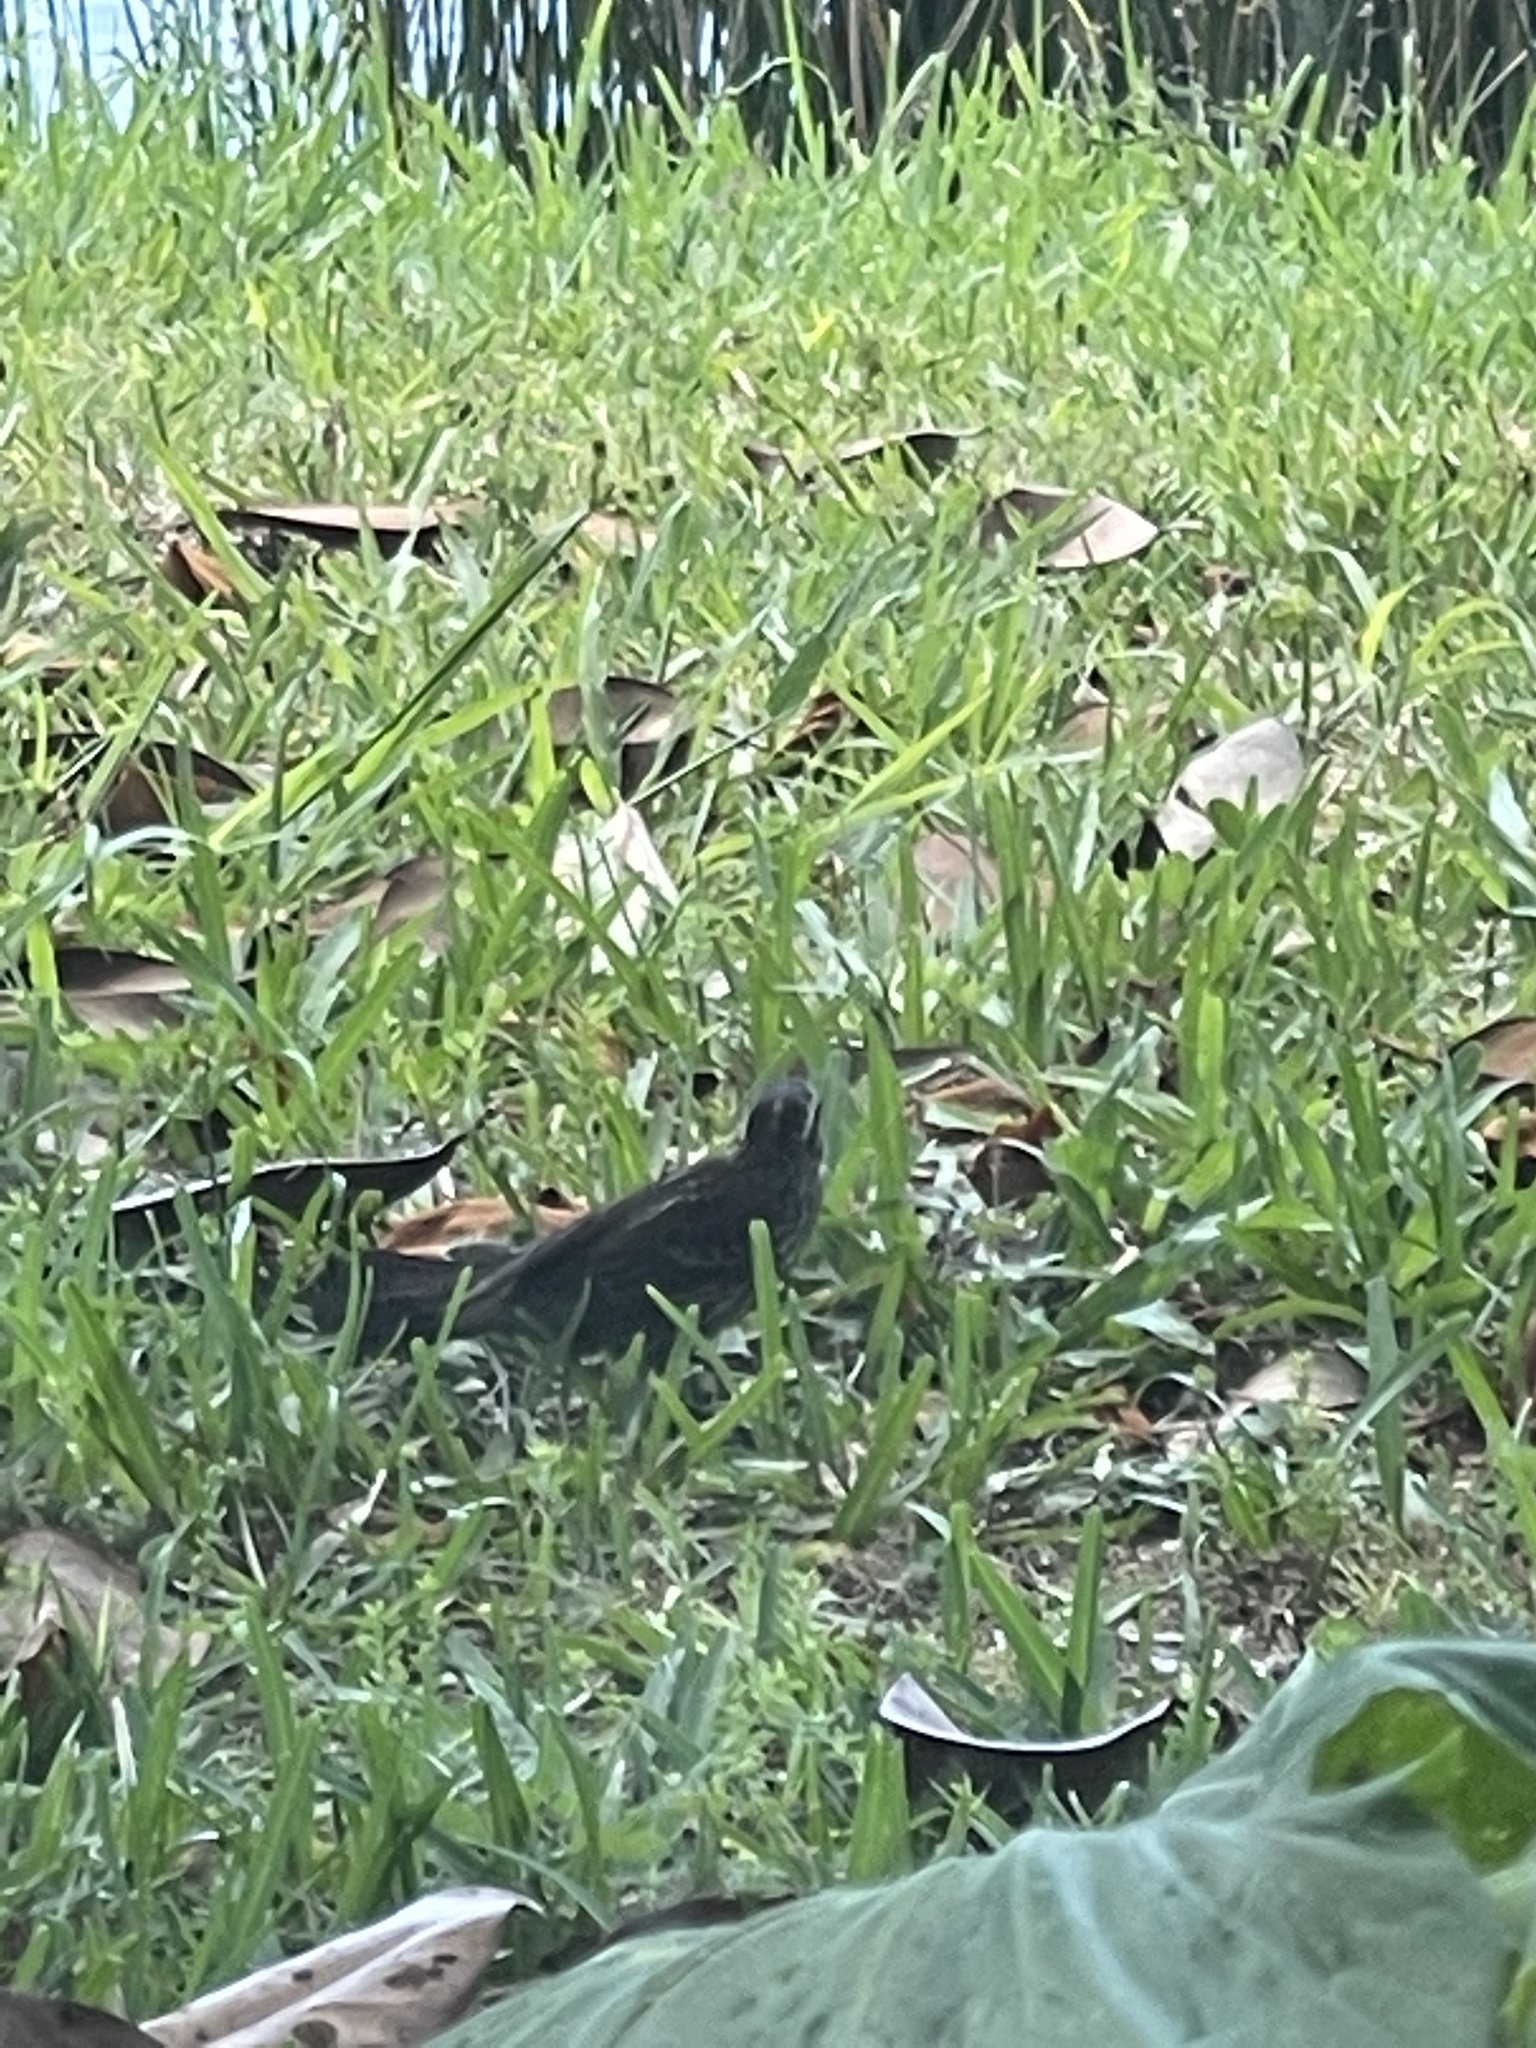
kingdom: Animalia
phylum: Chordata
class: Aves
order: Passeriformes
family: Icteridae
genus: Agelaius
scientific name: Agelaius phoeniceus
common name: Red-winged blackbird
